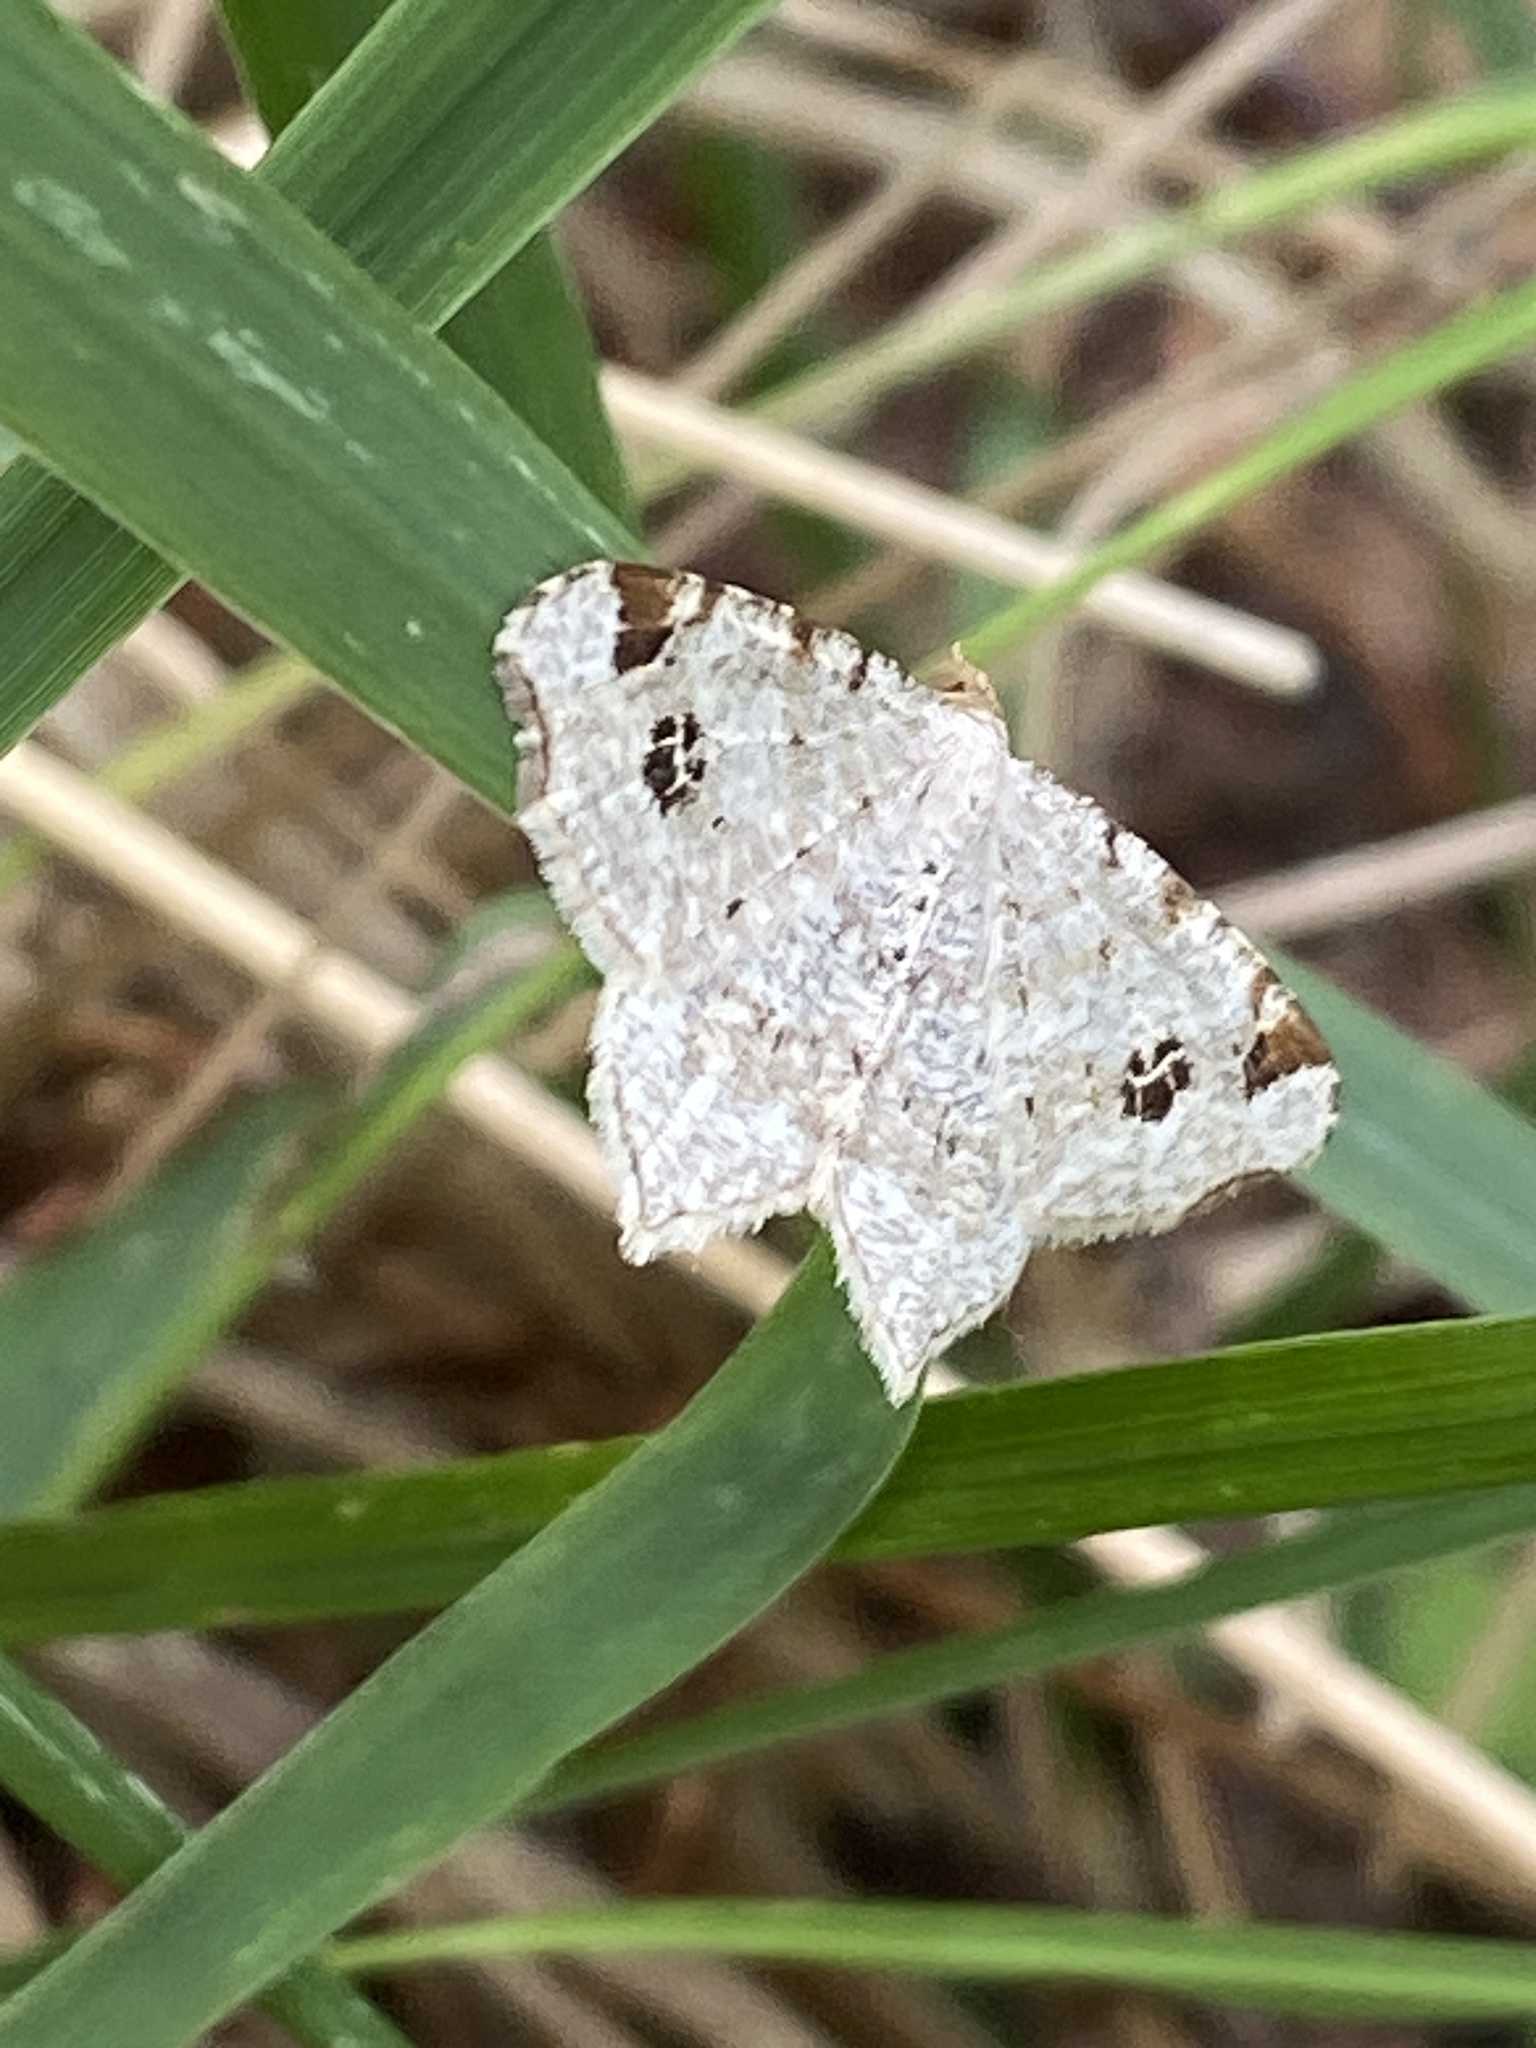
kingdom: Animalia
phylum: Arthropoda
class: Insecta
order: Lepidoptera
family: Geometridae
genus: Macaria
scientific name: Macaria notata
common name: Peacock moth
